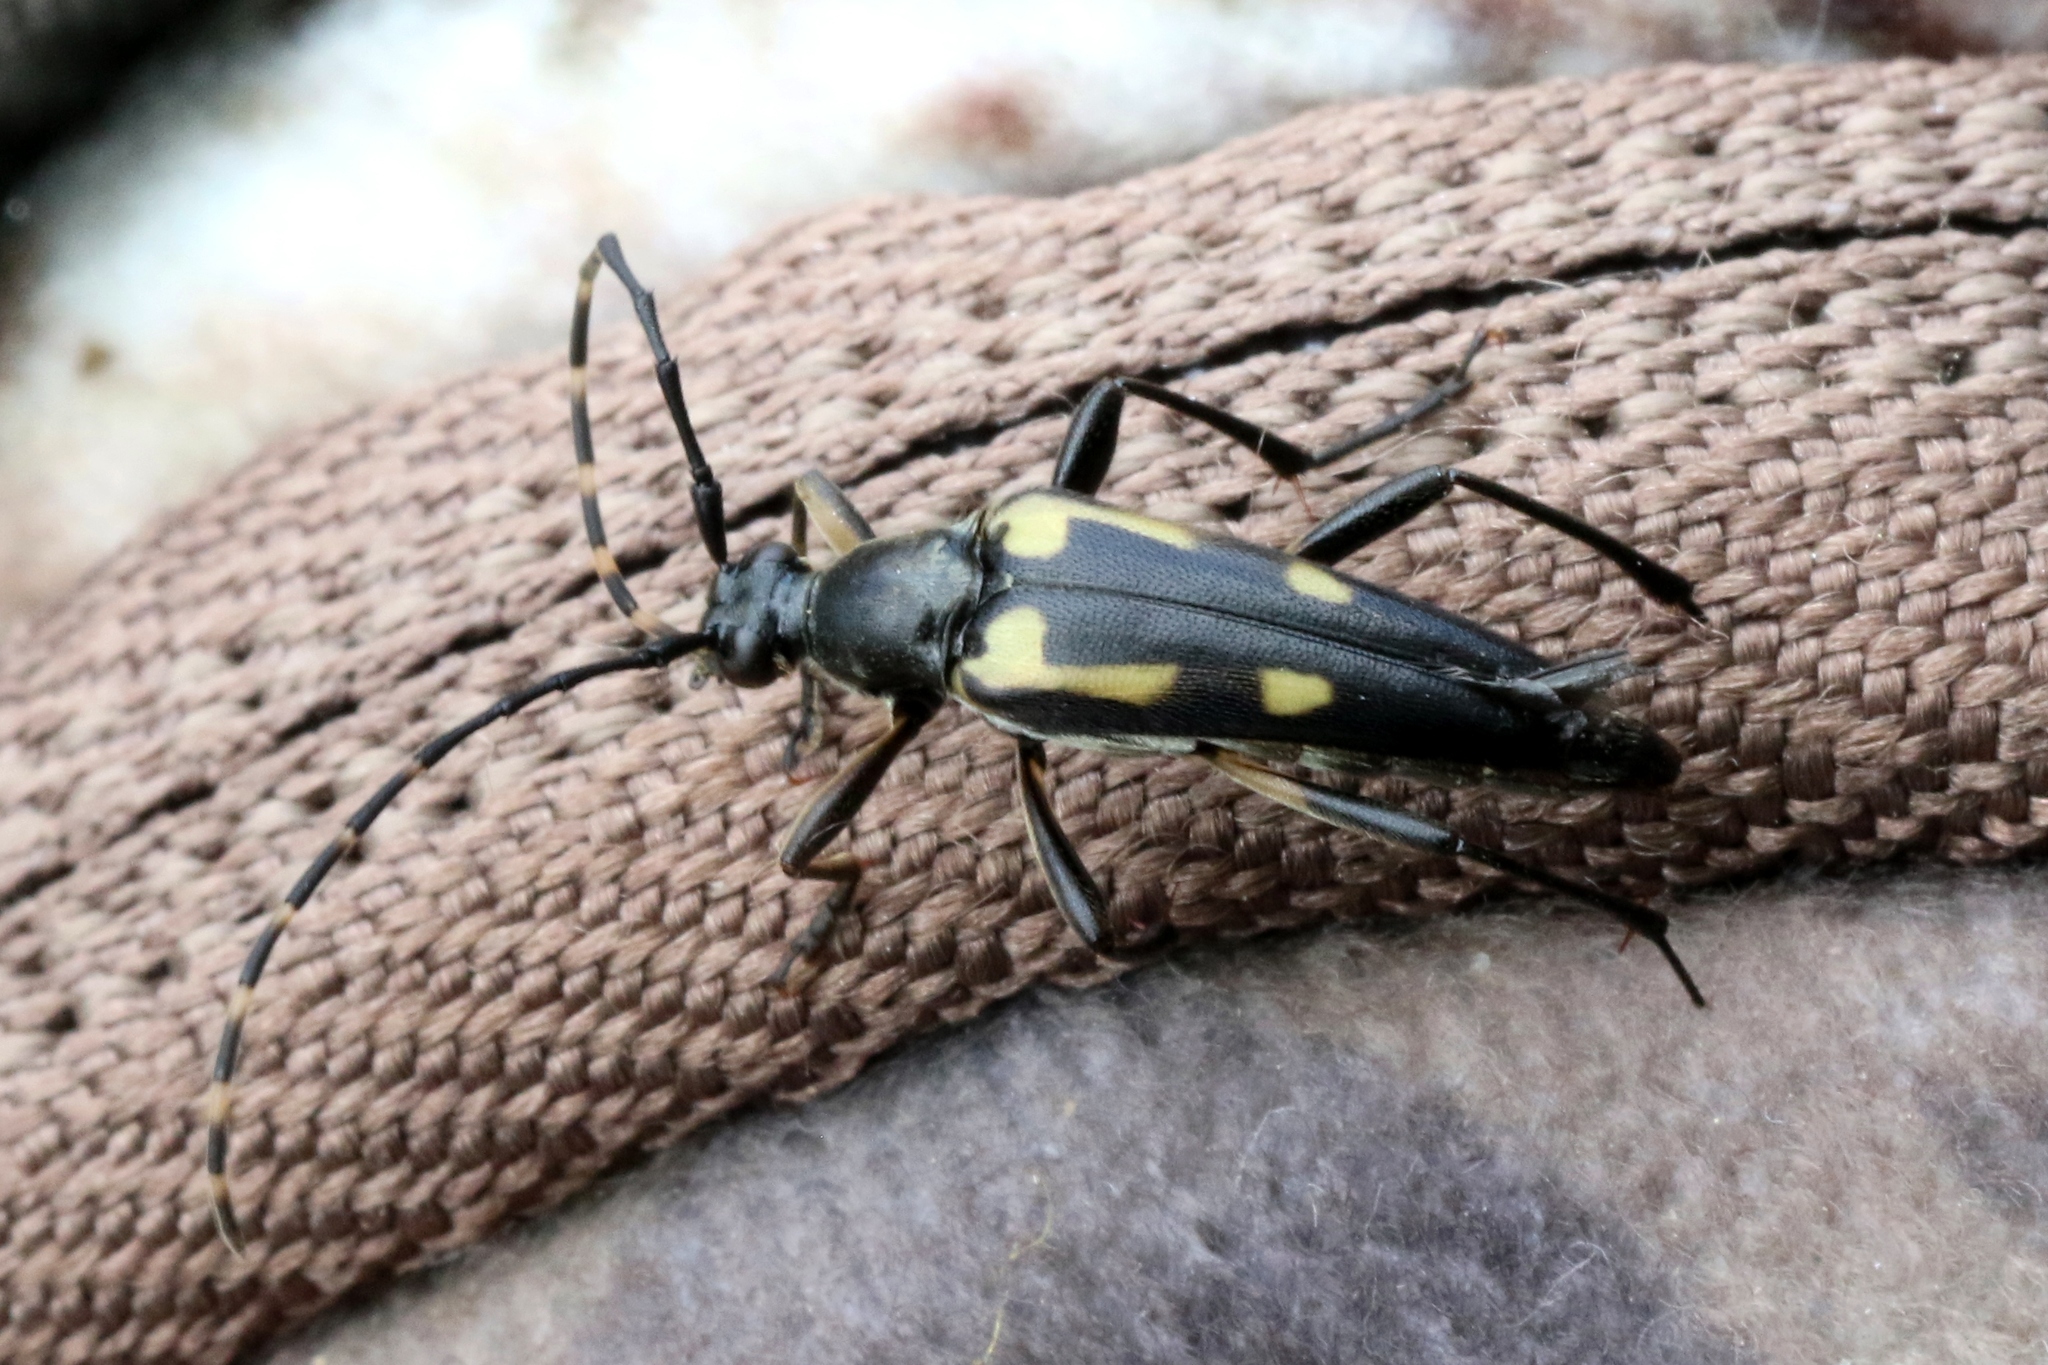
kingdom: Animalia
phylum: Arthropoda
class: Insecta
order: Coleoptera
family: Cerambycidae
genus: Etorofus
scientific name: Etorofus
